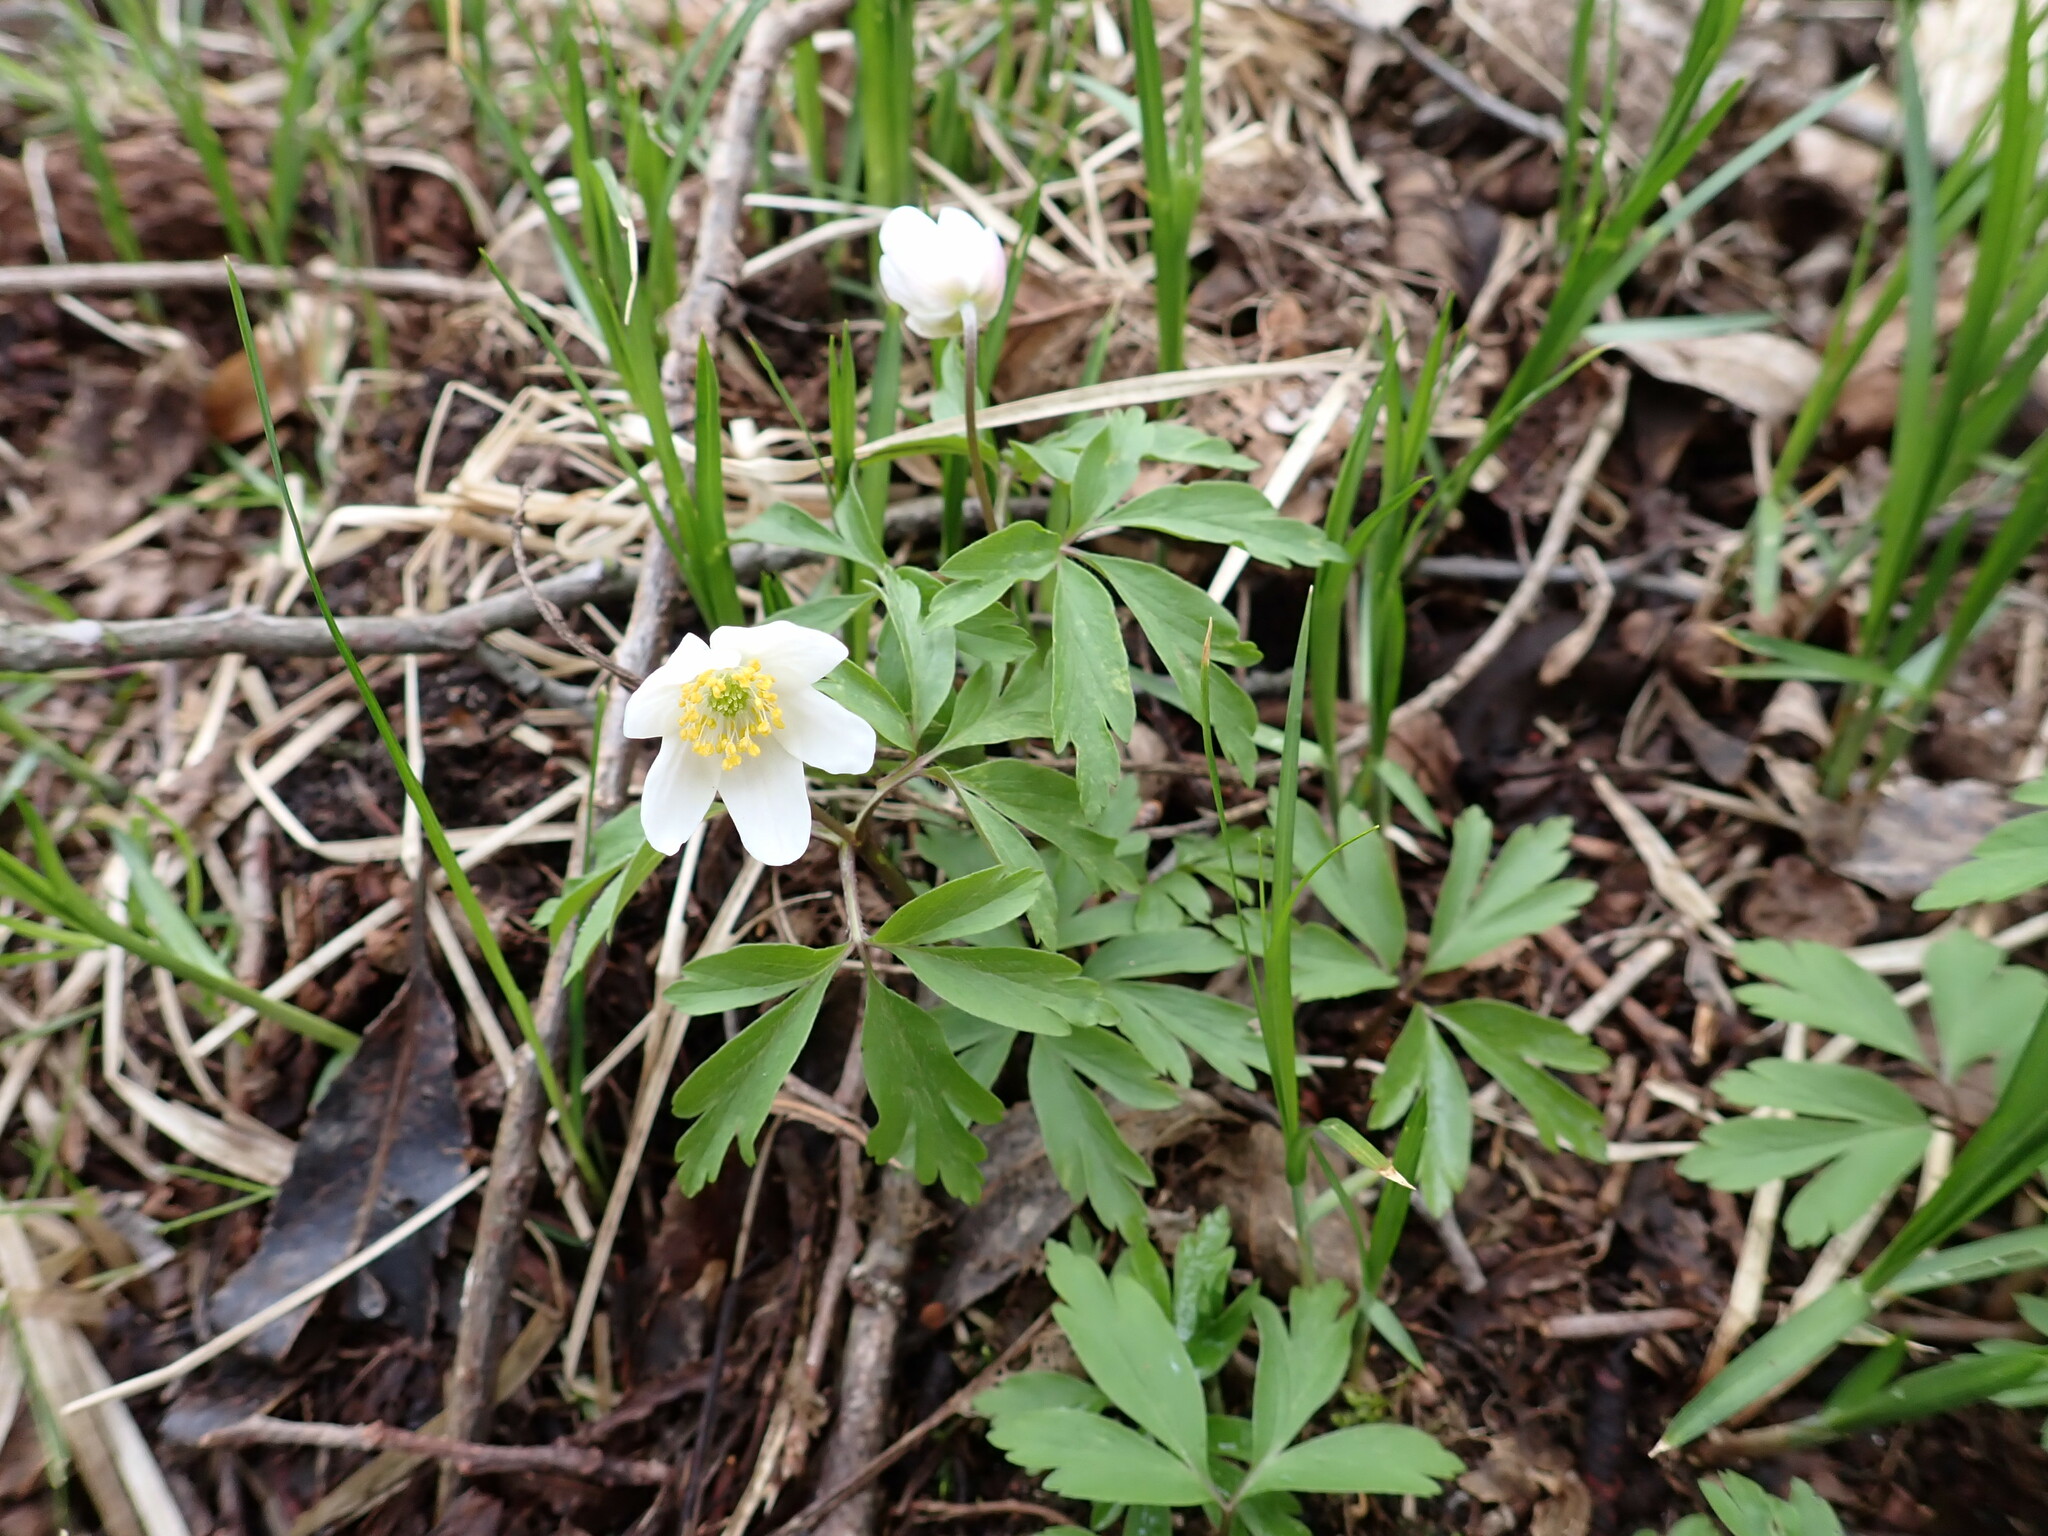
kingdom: Plantae
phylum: Tracheophyta
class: Magnoliopsida
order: Ranunculales
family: Ranunculaceae
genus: Anemone
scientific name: Anemone nemorosa
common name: Wood anemone
